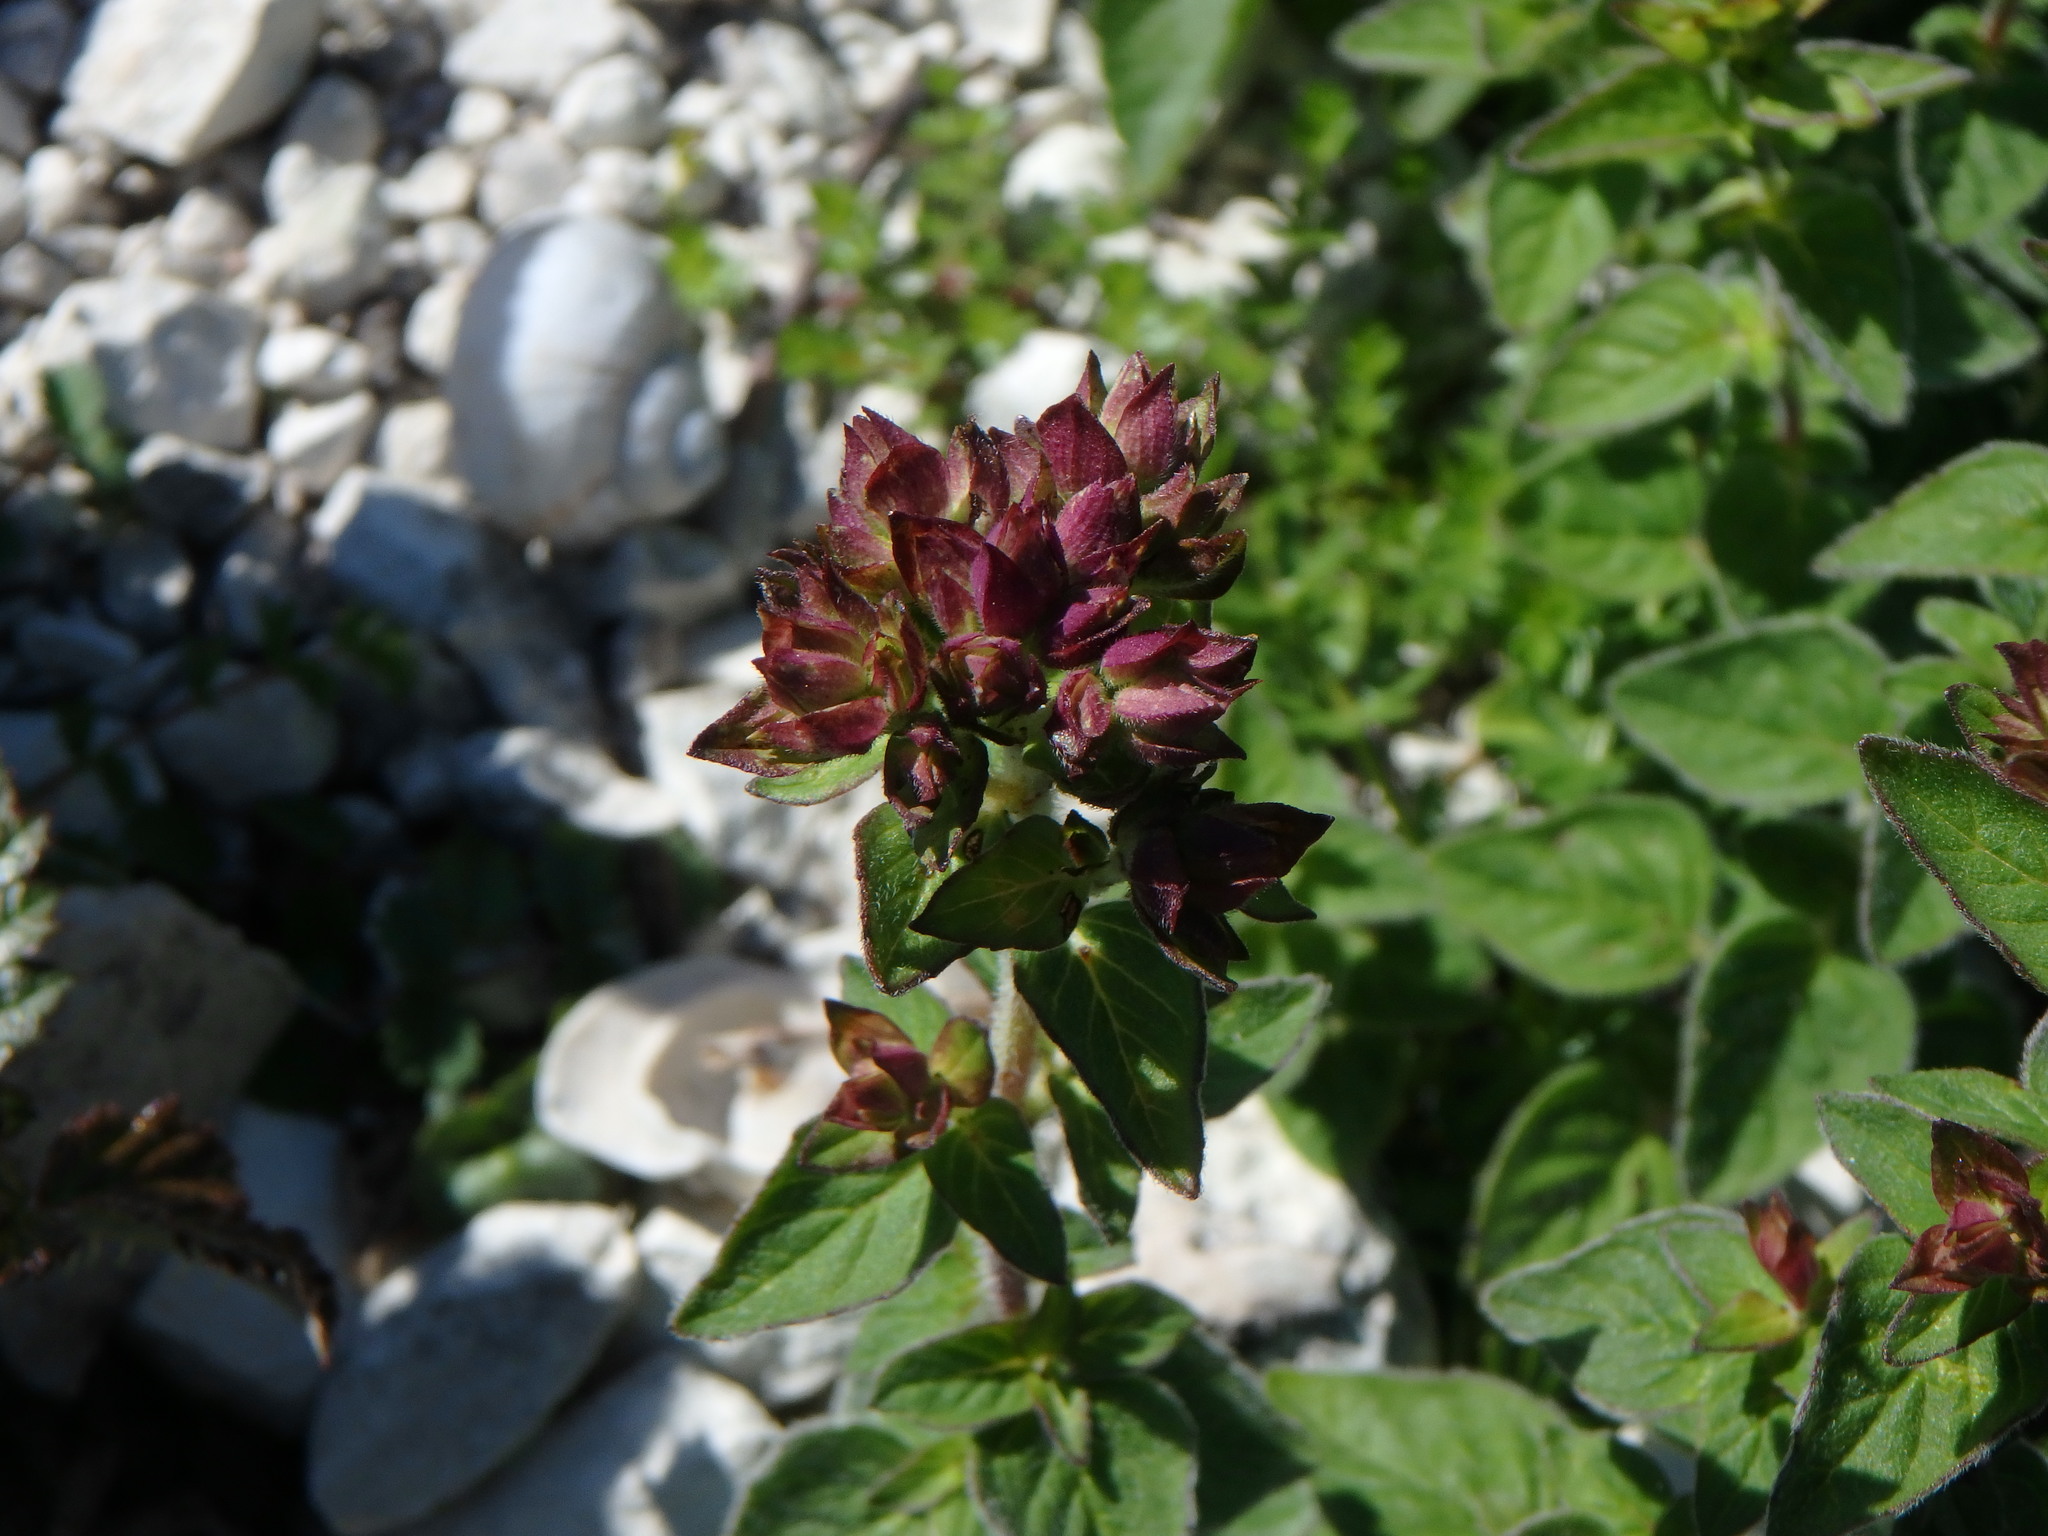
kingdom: Plantae
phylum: Tracheophyta
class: Magnoliopsida
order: Lamiales
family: Lamiaceae
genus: Origanum
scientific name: Origanum vulgare
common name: Wild marjoram
